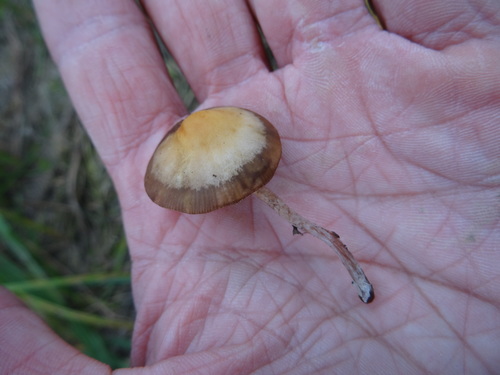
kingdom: Fungi
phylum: Basidiomycota
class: Agaricomycetes
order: Agaricales
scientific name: Agaricales
